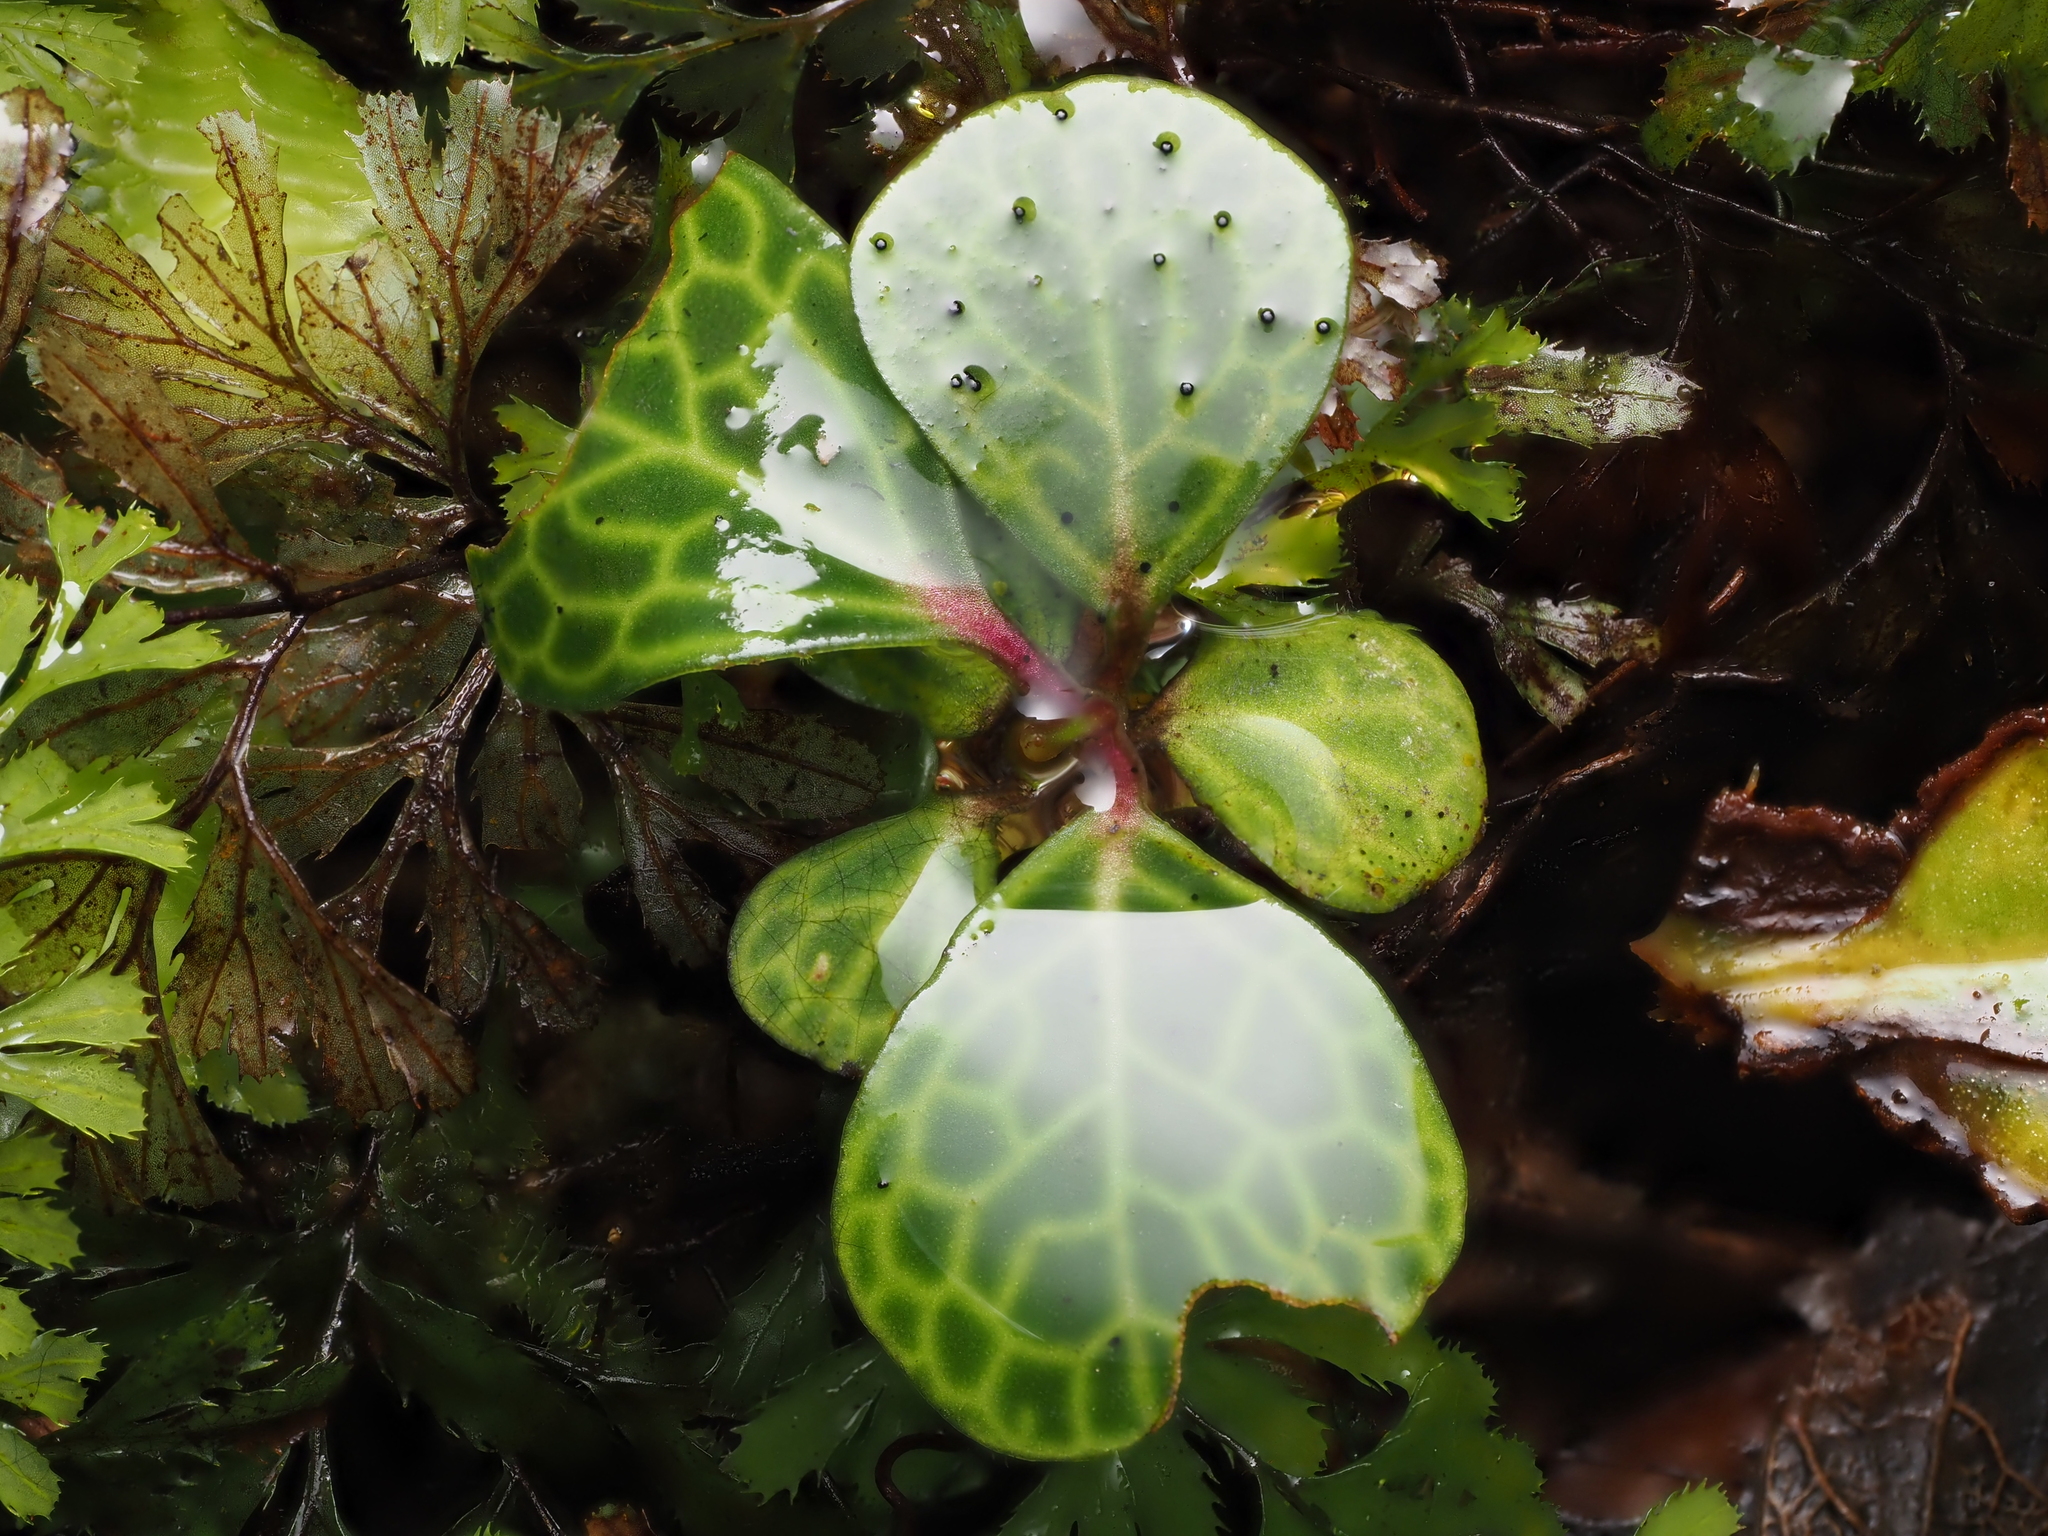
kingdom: Plantae
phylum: Tracheophyta
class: Magnoliopsida
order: Canellales
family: Winteraceae
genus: Pseudowintera
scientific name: Pseudowintera axillaris
